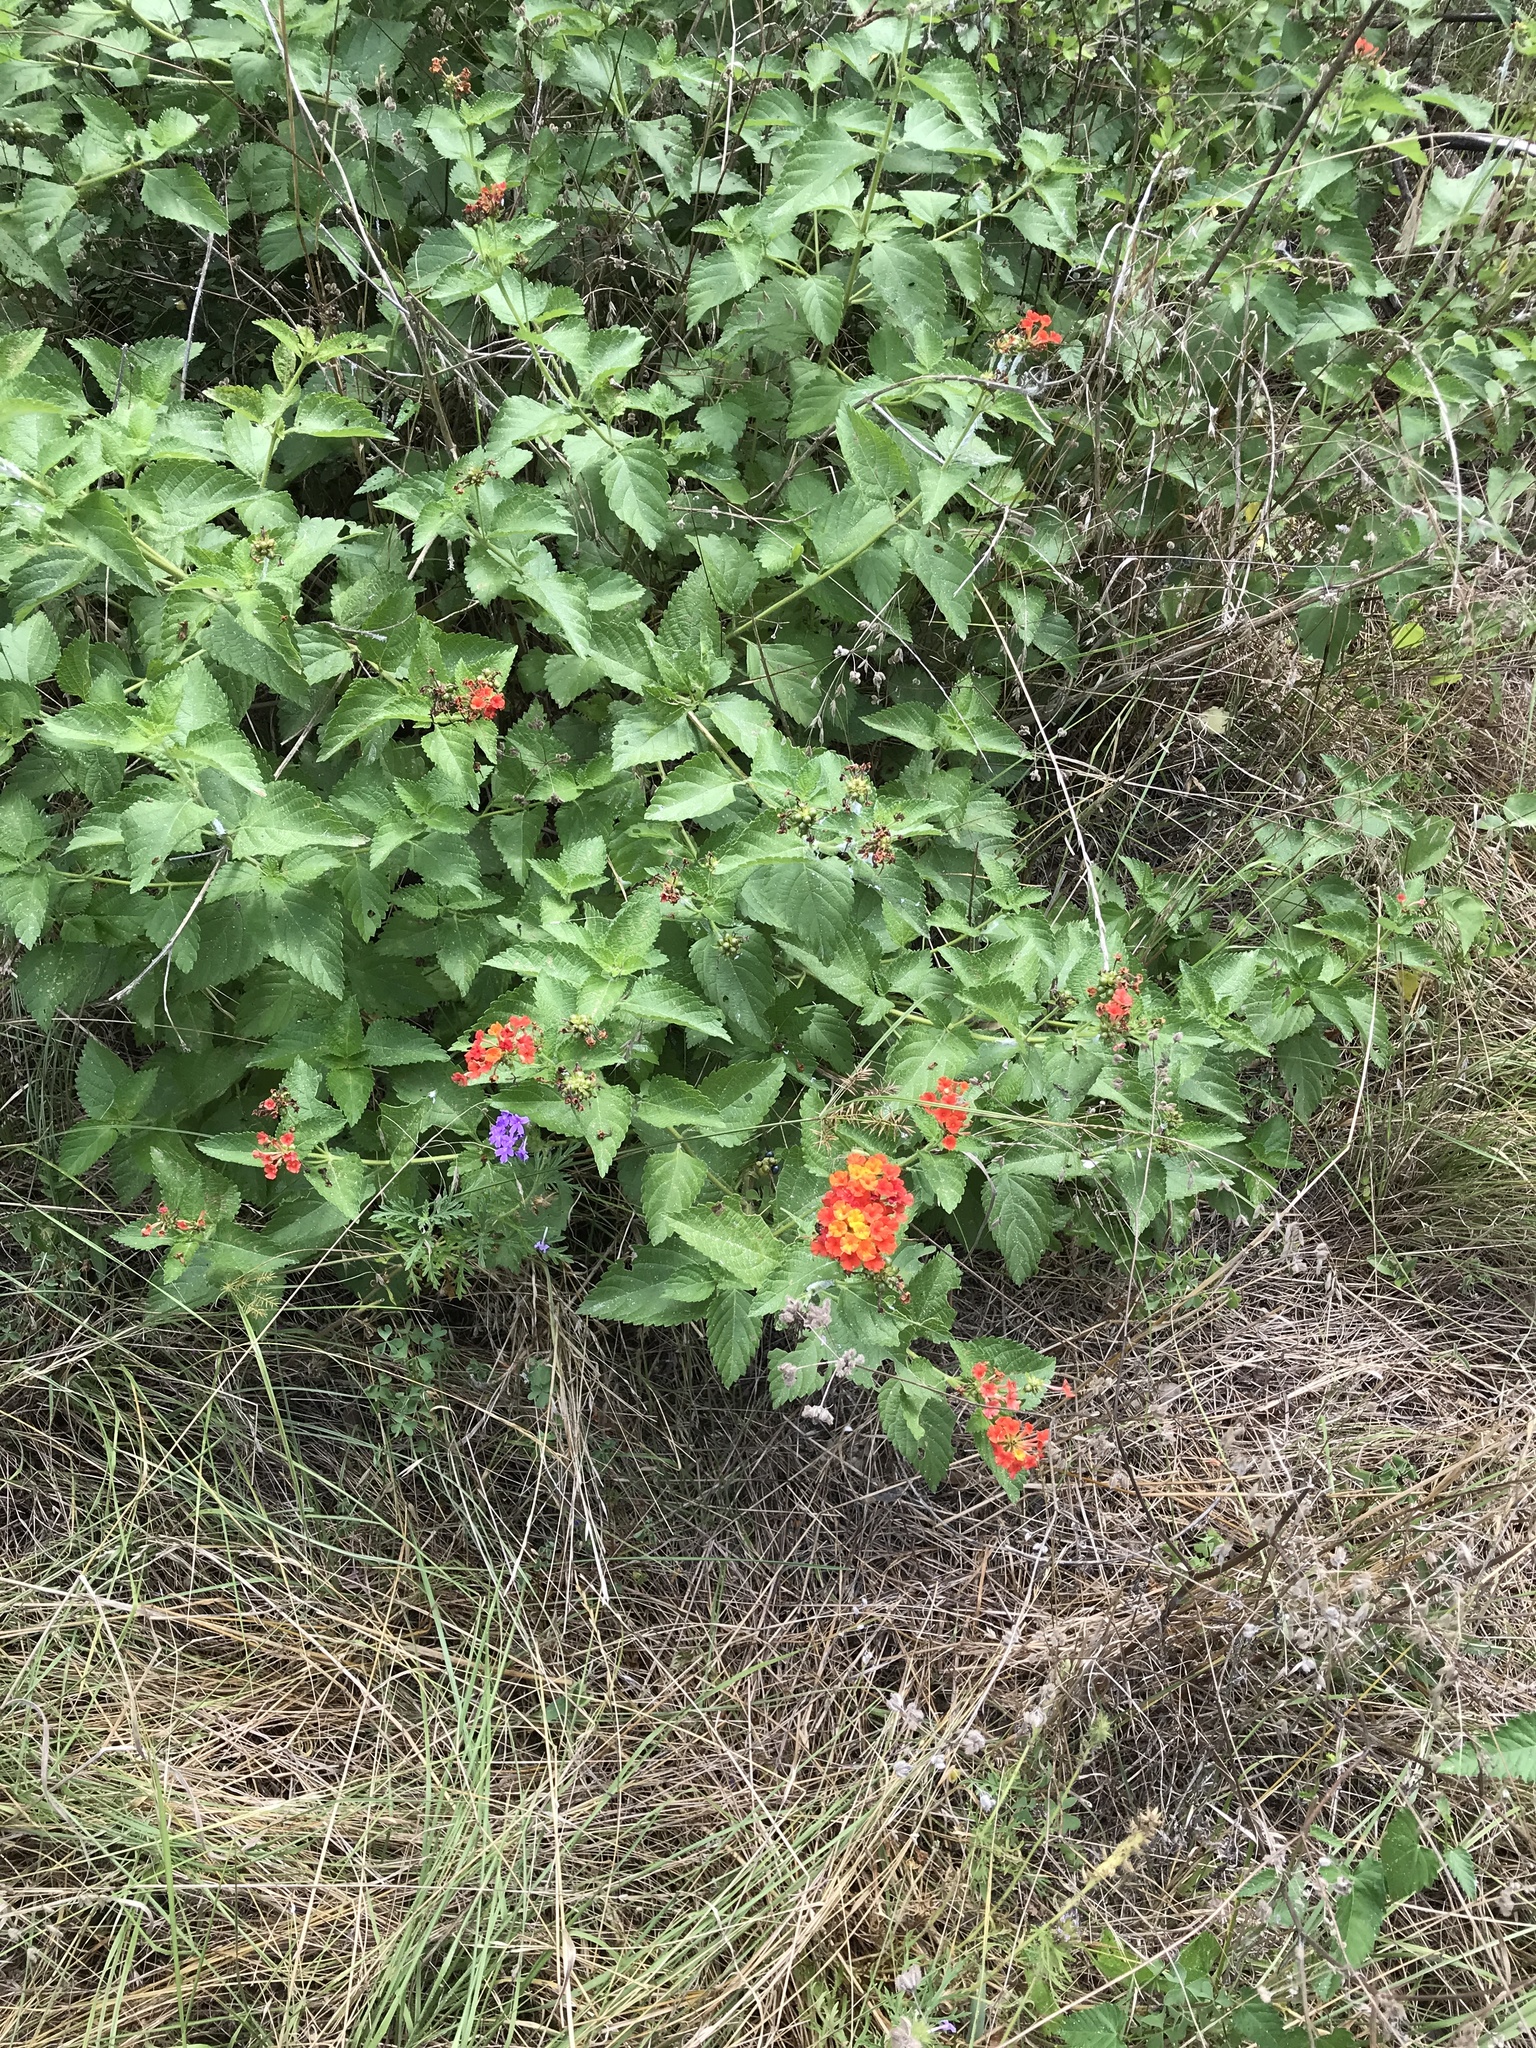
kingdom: Plantae
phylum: Tracheophyta
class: Magnoliopsida
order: Lamiales
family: Verbenaceae
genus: Lantana
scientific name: Lantana urticoides
